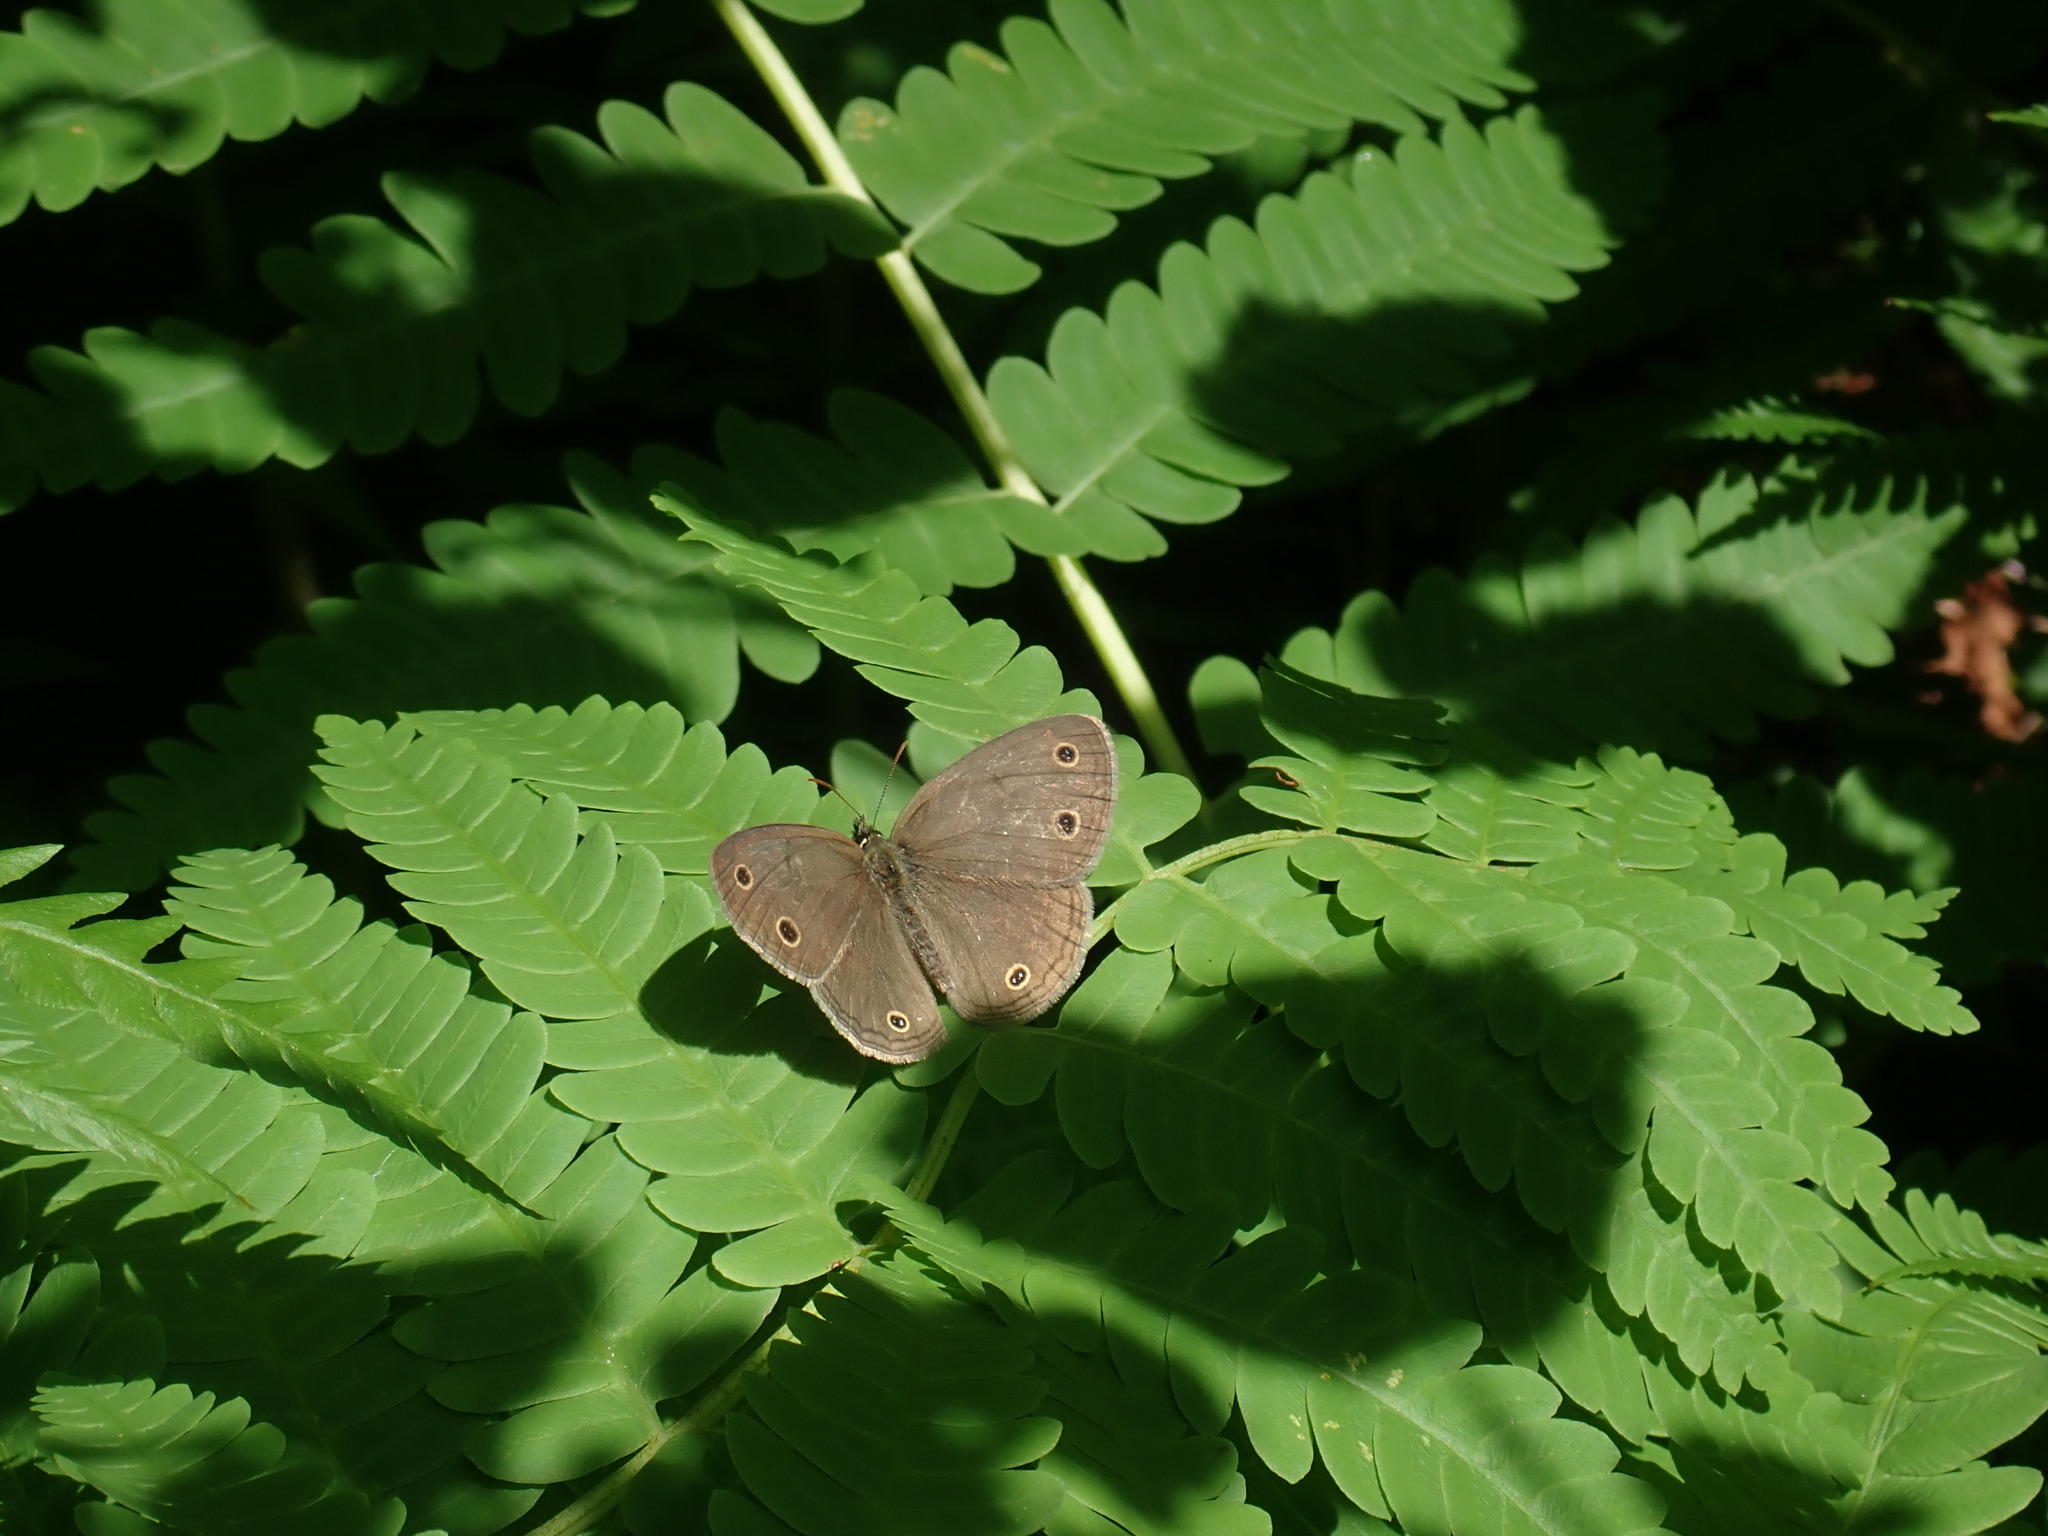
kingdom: Animalia
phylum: Arthropoda
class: Insecta
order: Lepidoptera
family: Nymphalidae
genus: Euptychia
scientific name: Euptychia cymela
